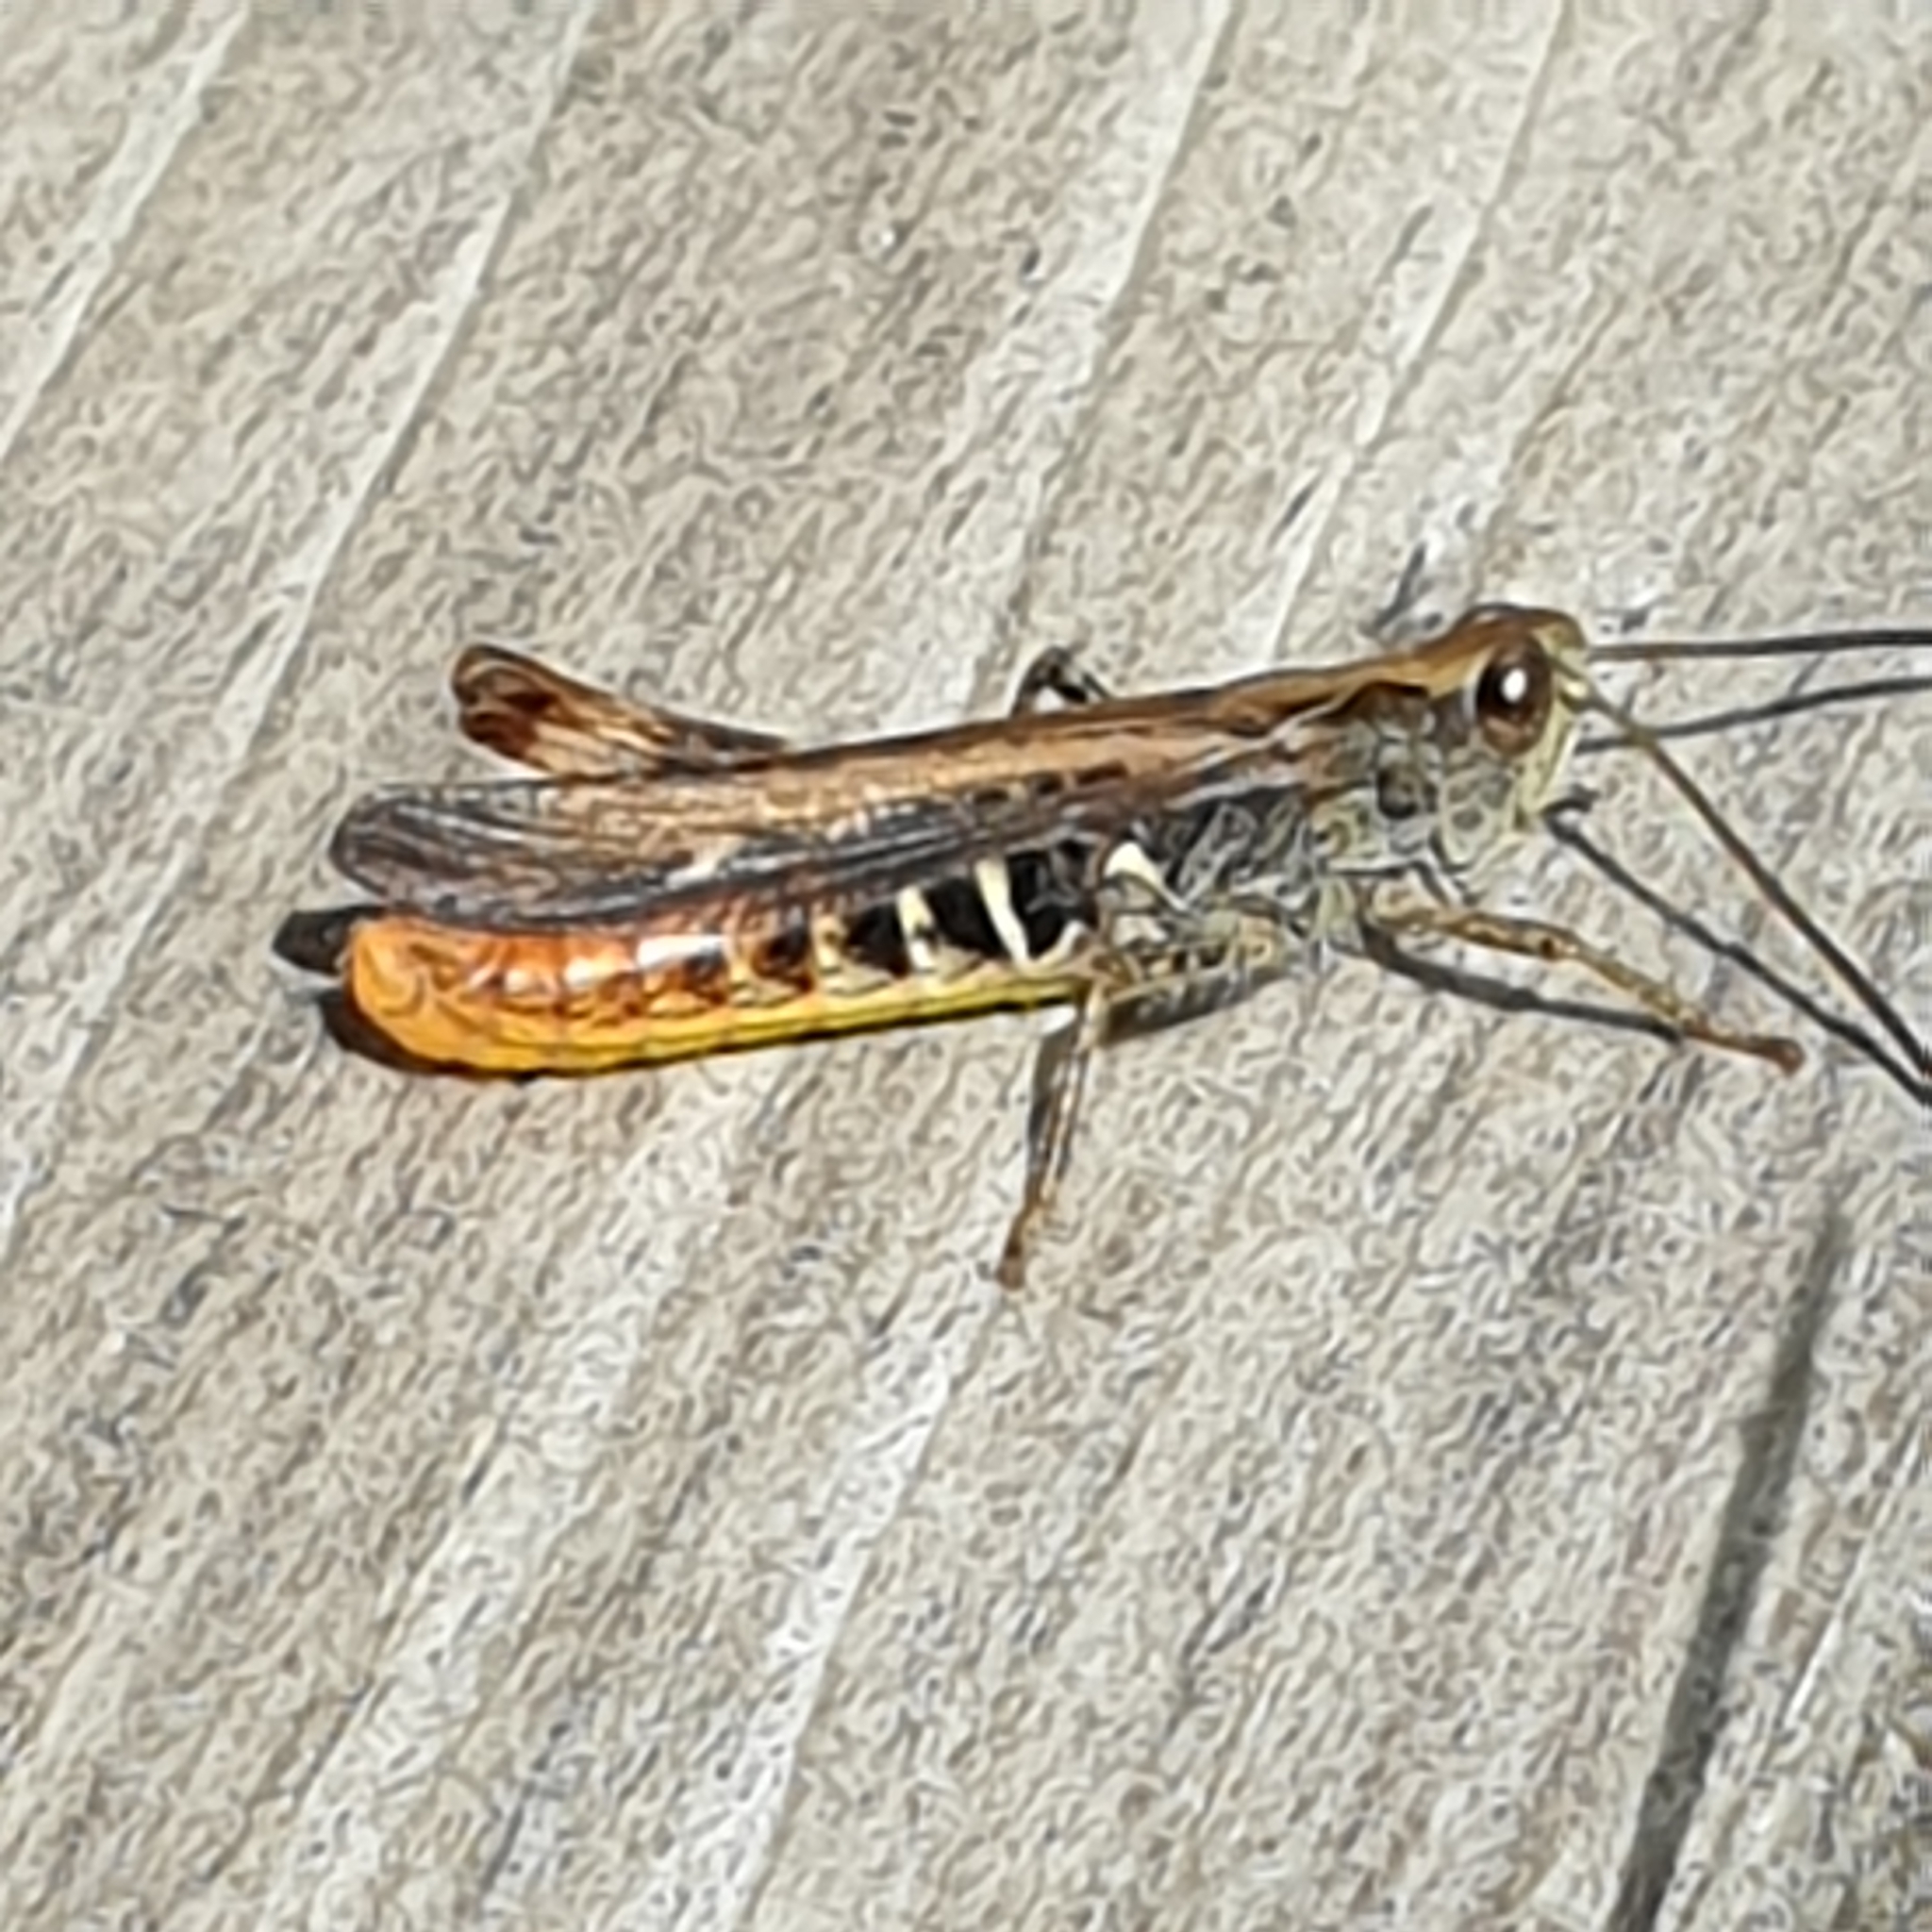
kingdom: Animalia
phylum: Arthropoda
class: Insecta
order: Orthoptera
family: Acrididae
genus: Chorthippus
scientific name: Chorthippus brunneus
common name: Field grasshopper
